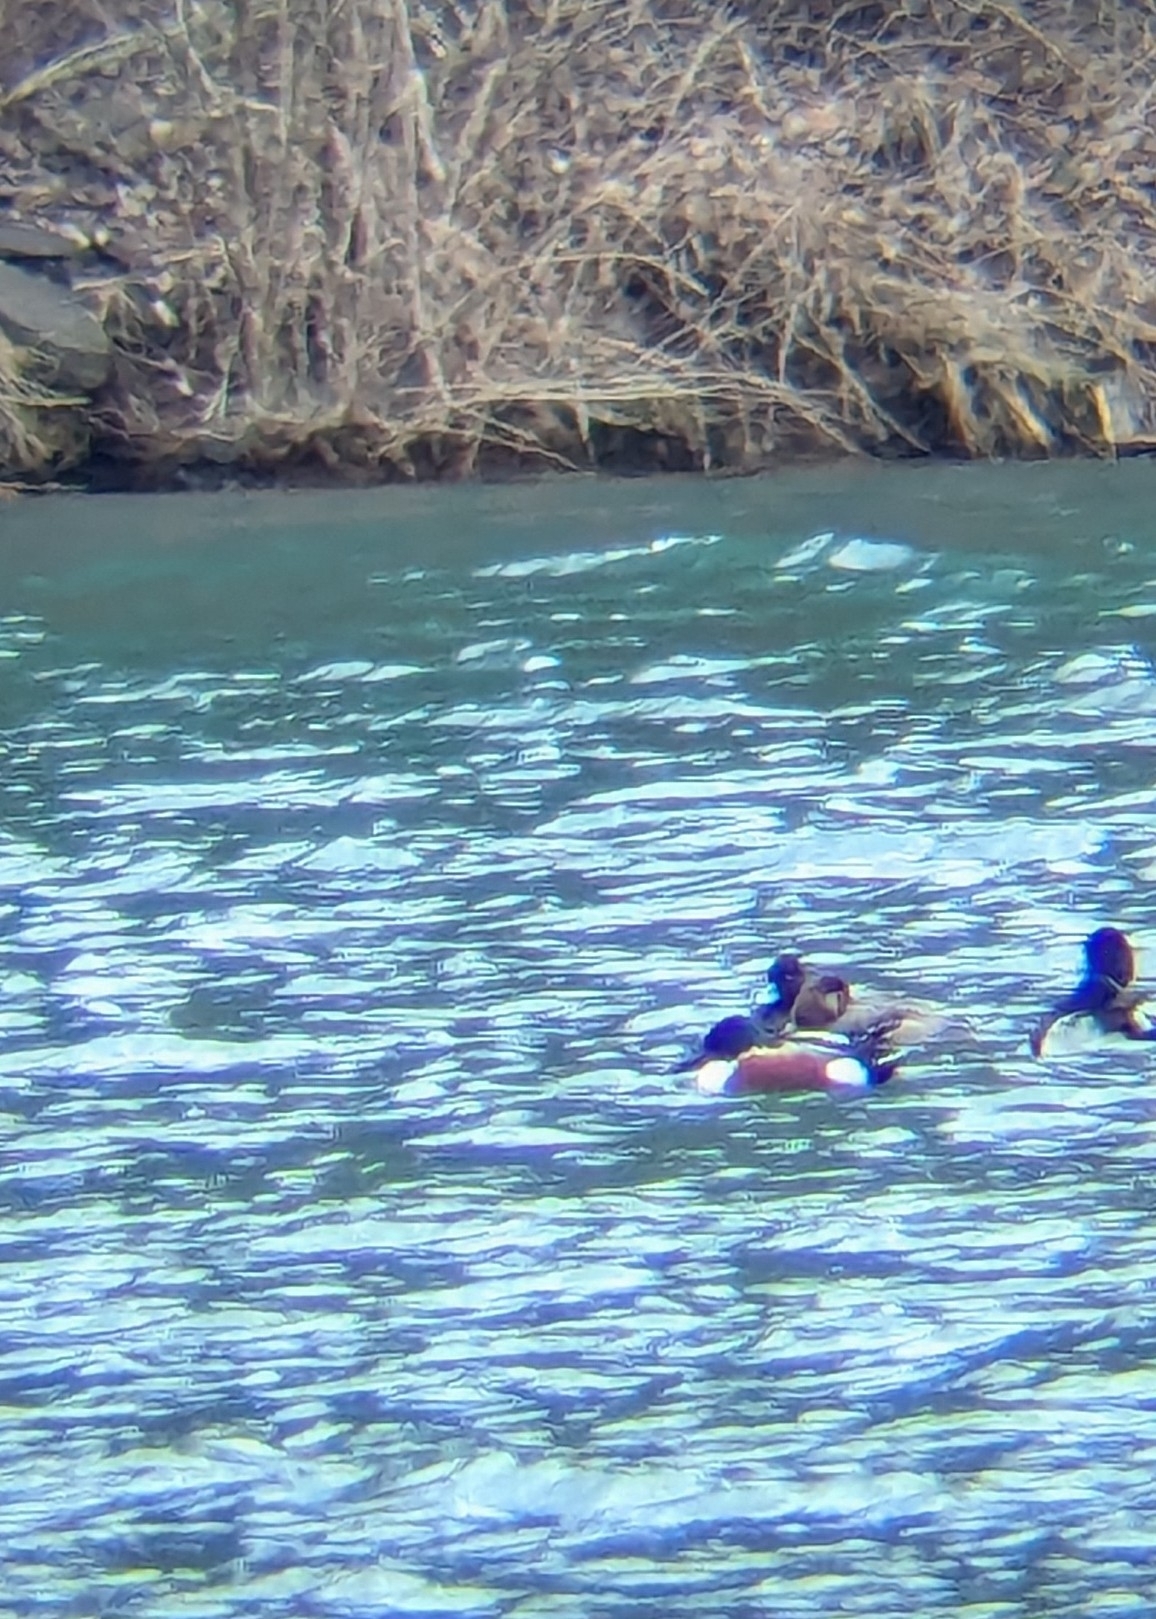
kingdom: Animalia
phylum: Chordata
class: Aves
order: Anseriformes
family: Anatidae
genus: Spatula
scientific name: Spatula clypeata
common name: Northern shoveler
